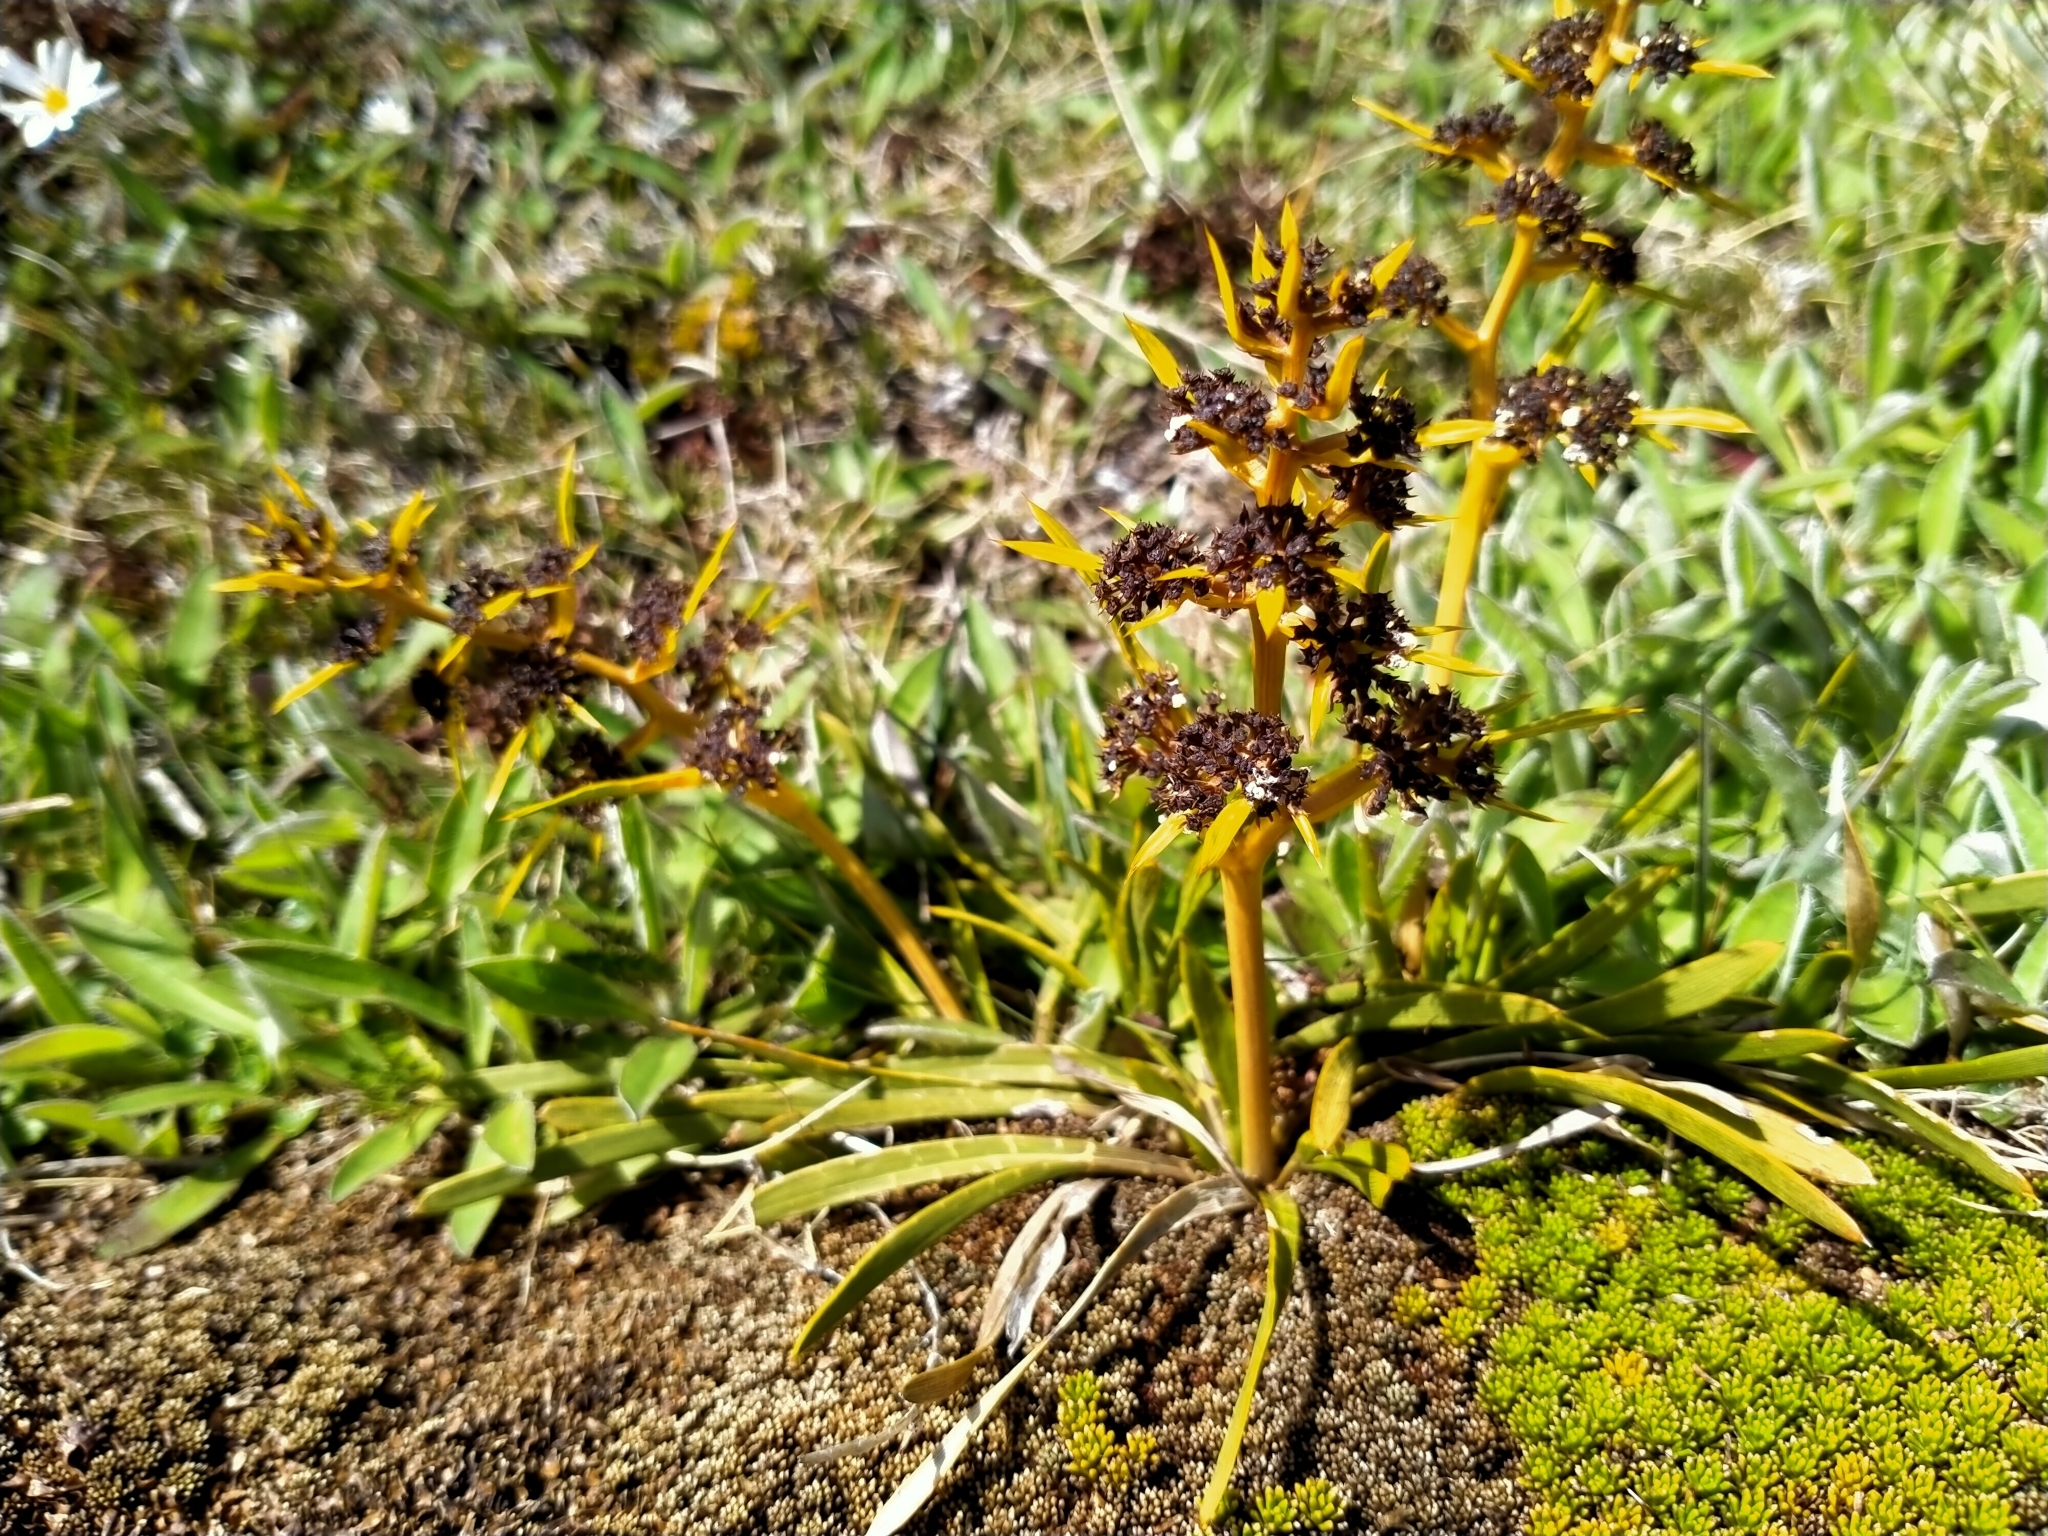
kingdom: Plantae
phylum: Tracheophyta
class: Magnoliopsida
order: Apiales
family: Apiaceae
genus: Aciphylla
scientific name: Aciphylla verticillata
